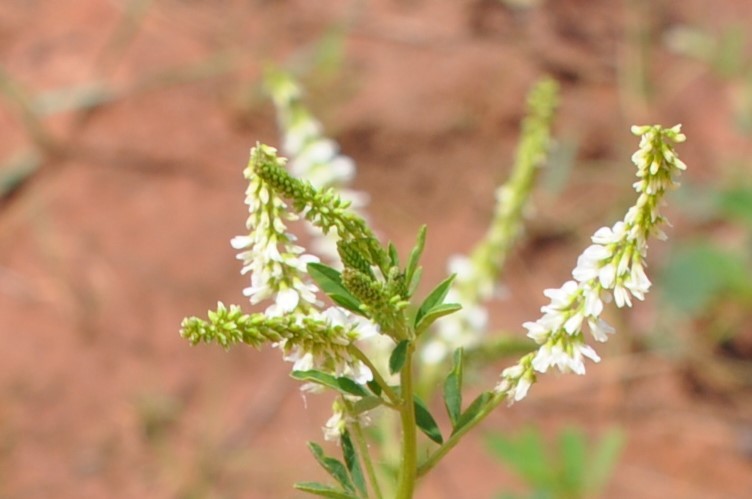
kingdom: Plantae
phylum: Tracheophyta
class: Magnoliopsida
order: Fabales
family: Fabaceae
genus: Melilotus
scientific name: Melilotus albus
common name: White melilot
